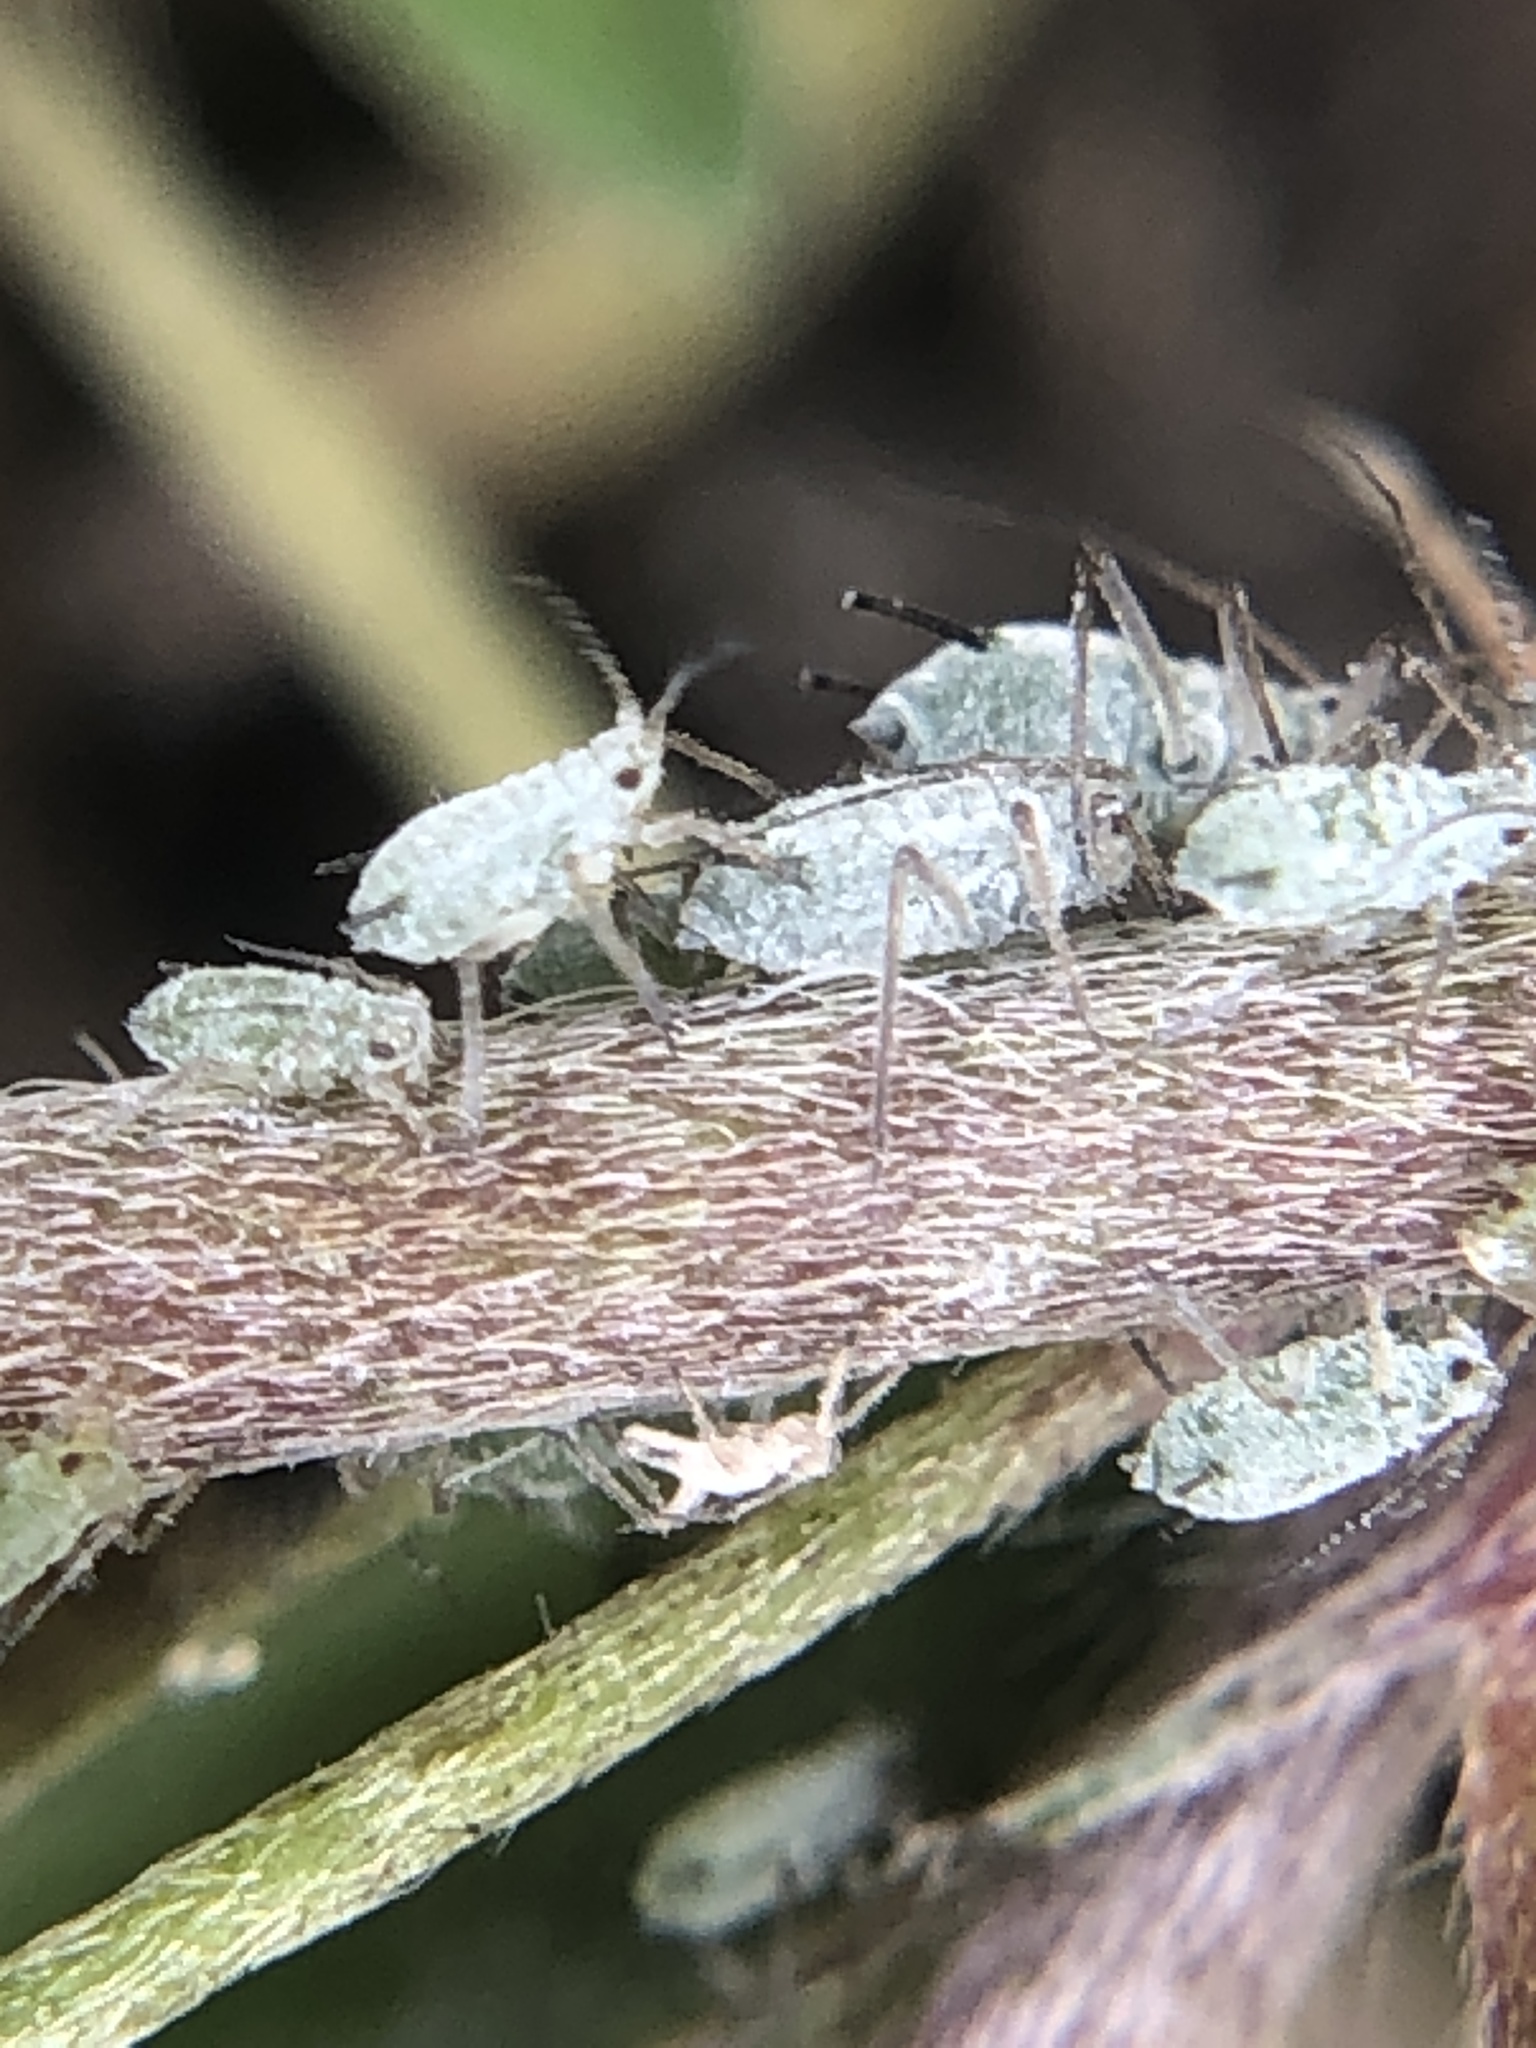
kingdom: Animalia
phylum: Arthropoda
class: Insecta
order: Hemiptera
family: Aphididae
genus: Macrosiphum
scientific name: Macrosiphum albifrons
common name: Lupine aphid
